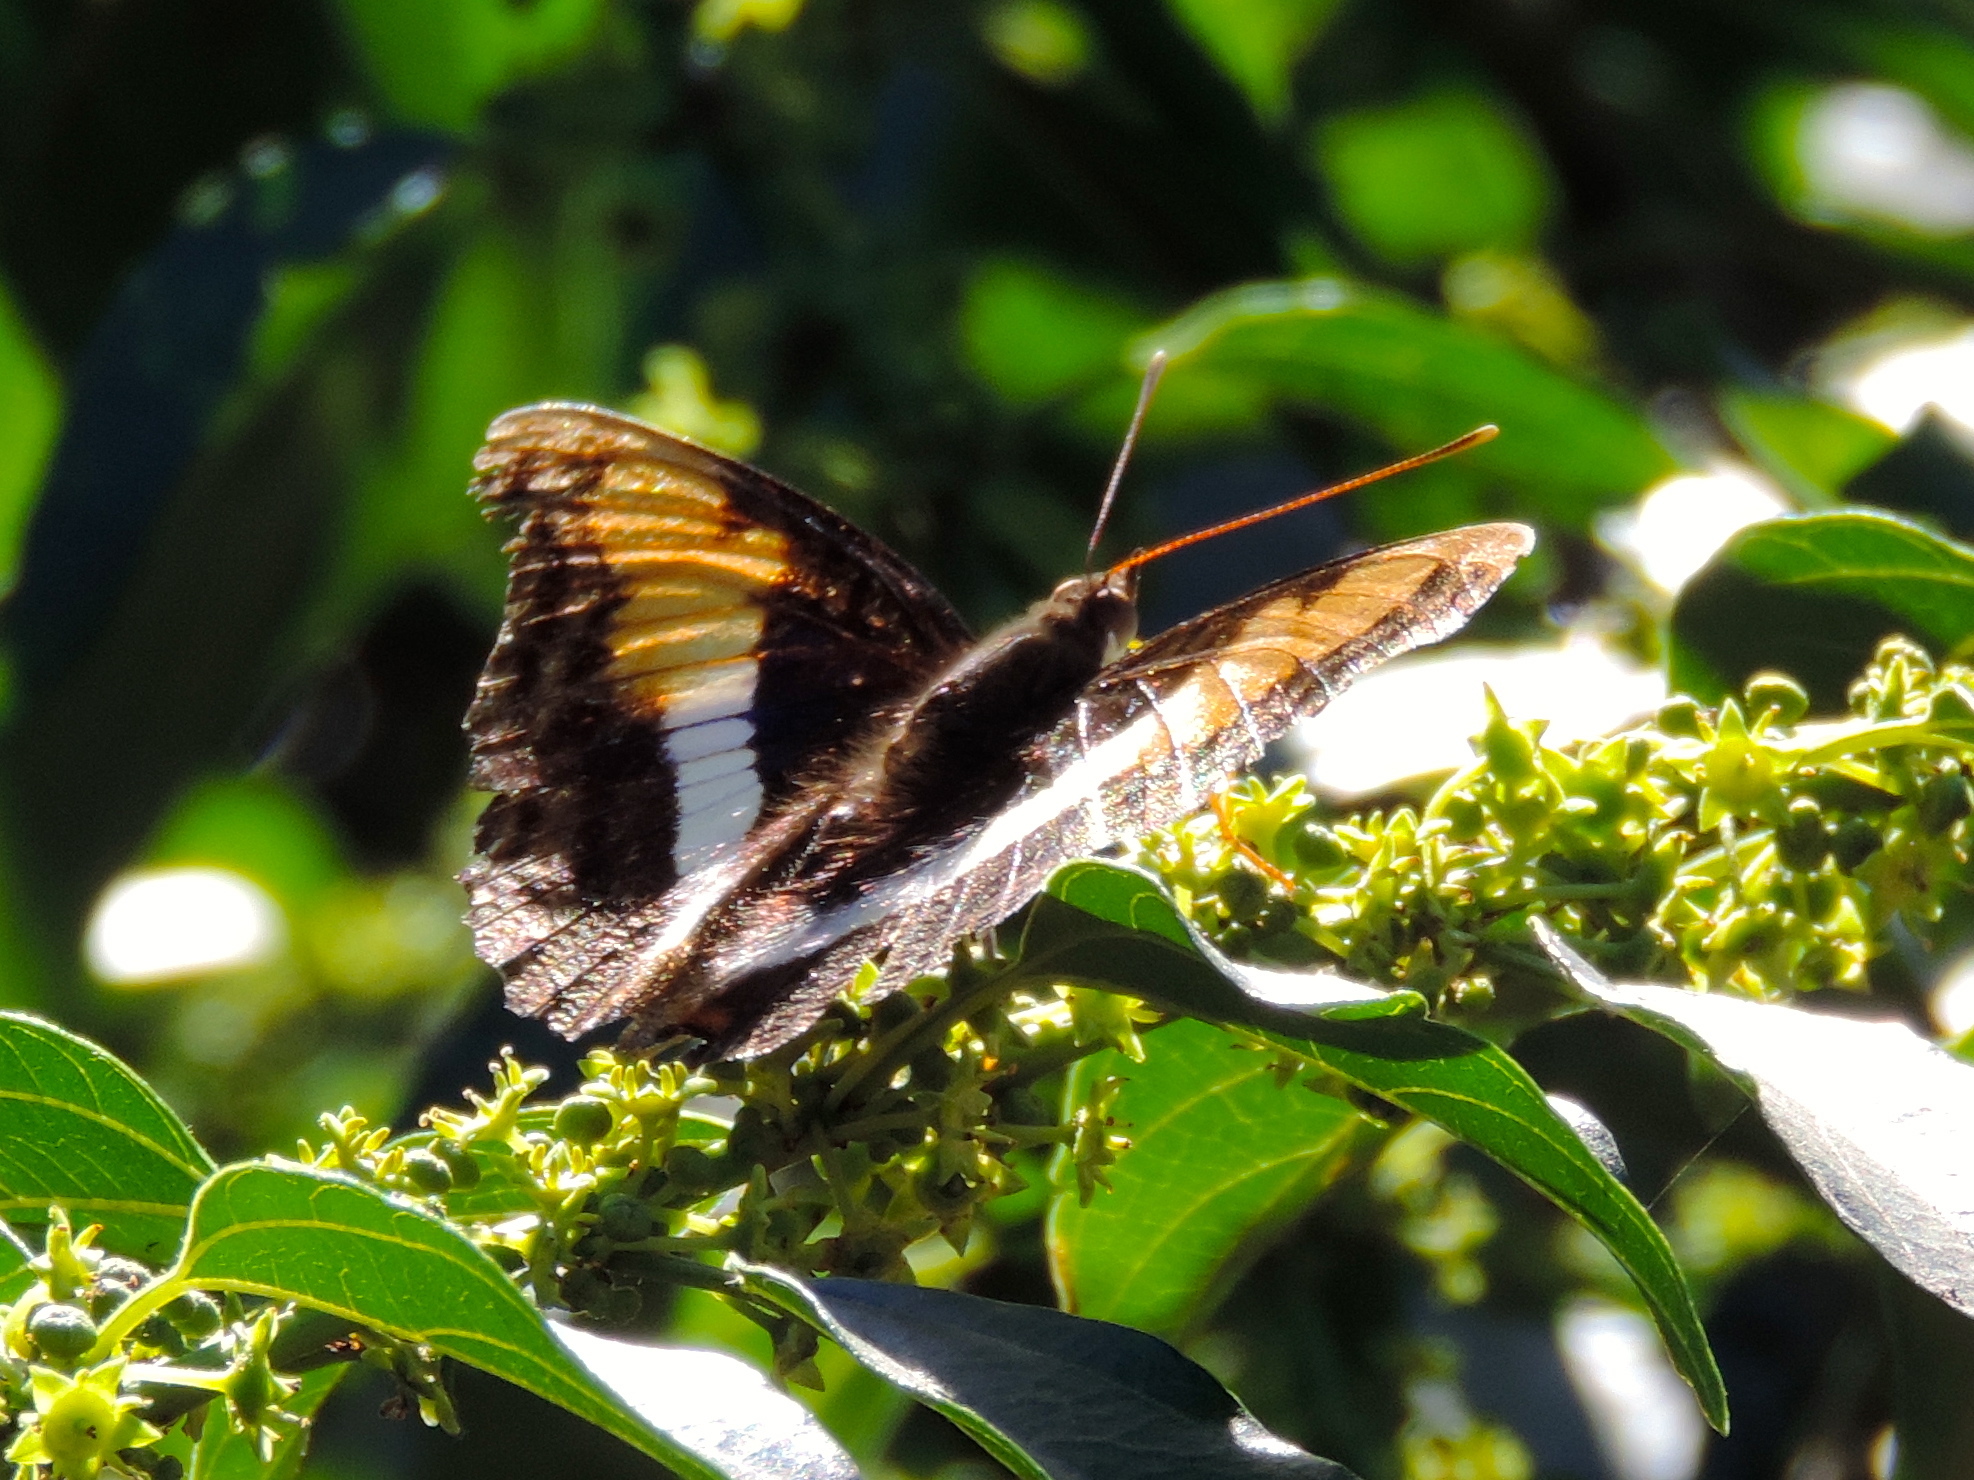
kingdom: Animalia
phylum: Arthropoda
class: Insecta
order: Lepidoptera
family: Nymphalidae
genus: Doxocopa
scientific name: Doxocopa laure
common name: Silver emperor
